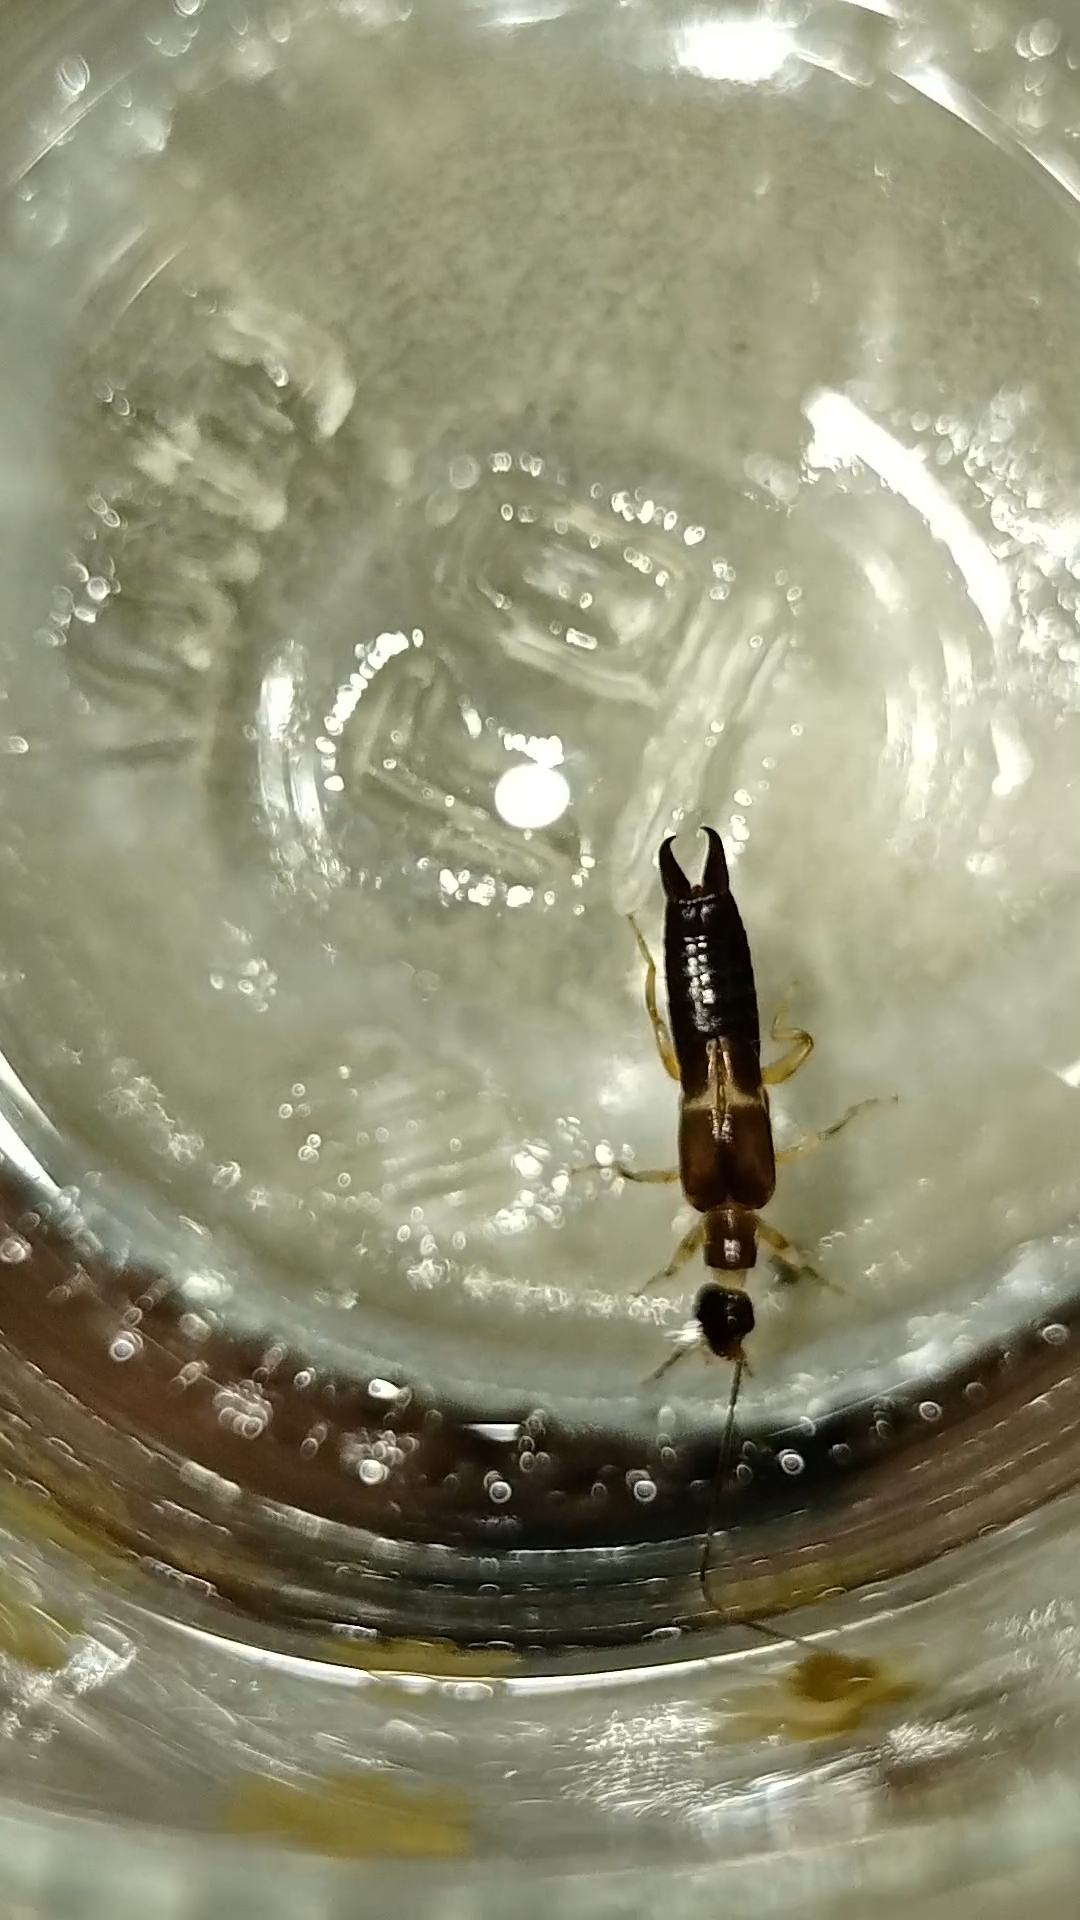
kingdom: Animalia
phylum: Arthropoda
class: Insecta
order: Dermaptera
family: Anisolabididae
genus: Euborellia
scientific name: Euborellia femoralis
